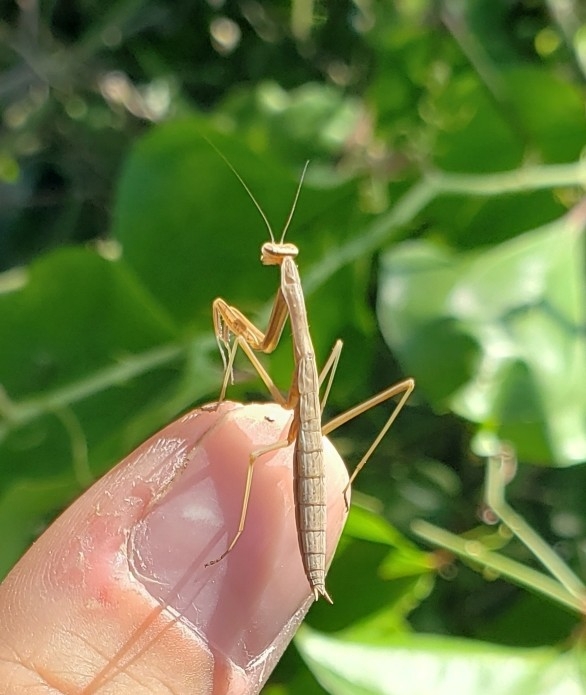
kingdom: Animalia
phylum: Arthropoda
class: Insecta
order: Mantodea
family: Mantidae
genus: Tenodera
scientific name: Tenodera sinensis
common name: Chinese mantis
